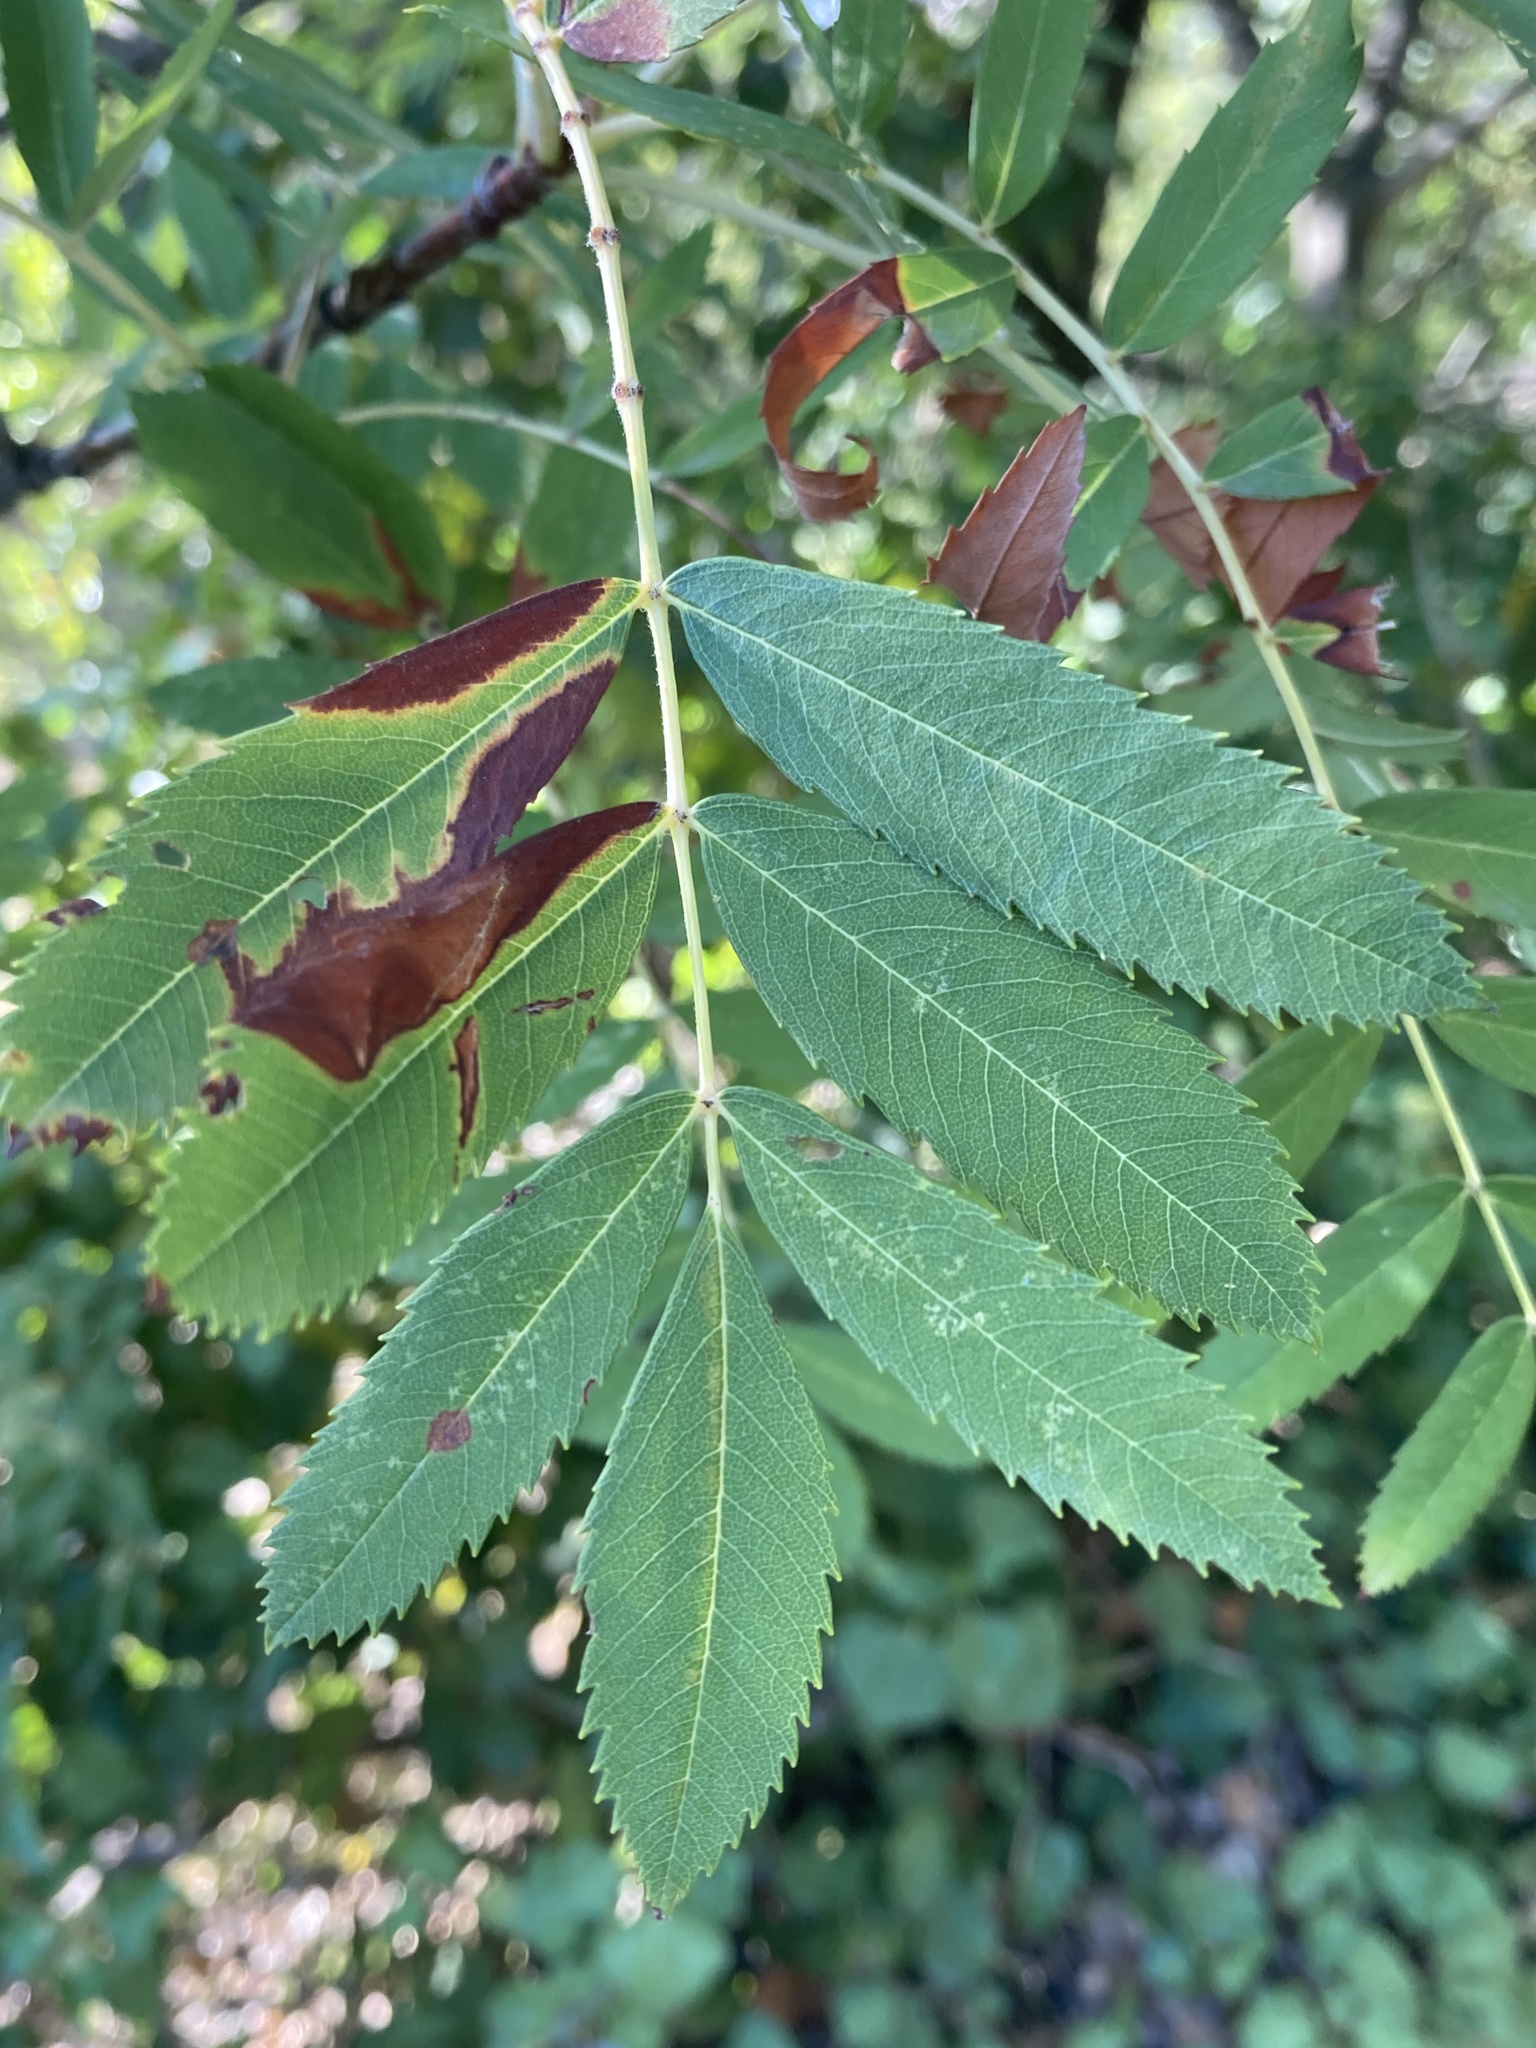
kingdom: Plantae
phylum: Tracheophyta
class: Magnoliopsida
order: Rosales
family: Rosaceae
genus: Cormus
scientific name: Cormus domestica
